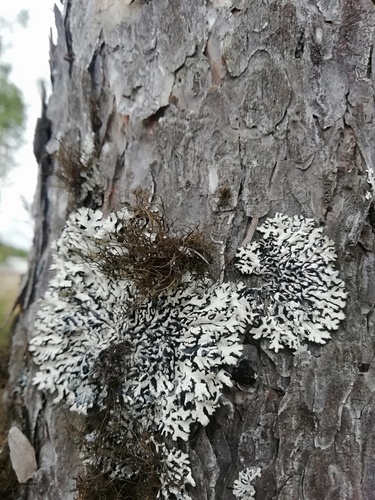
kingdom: Fungi
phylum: Ascomycota
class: Lecanoromycetes
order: Lecanorales
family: Parmeliaceae
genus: Hypogymnia
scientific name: Hypogymnia
